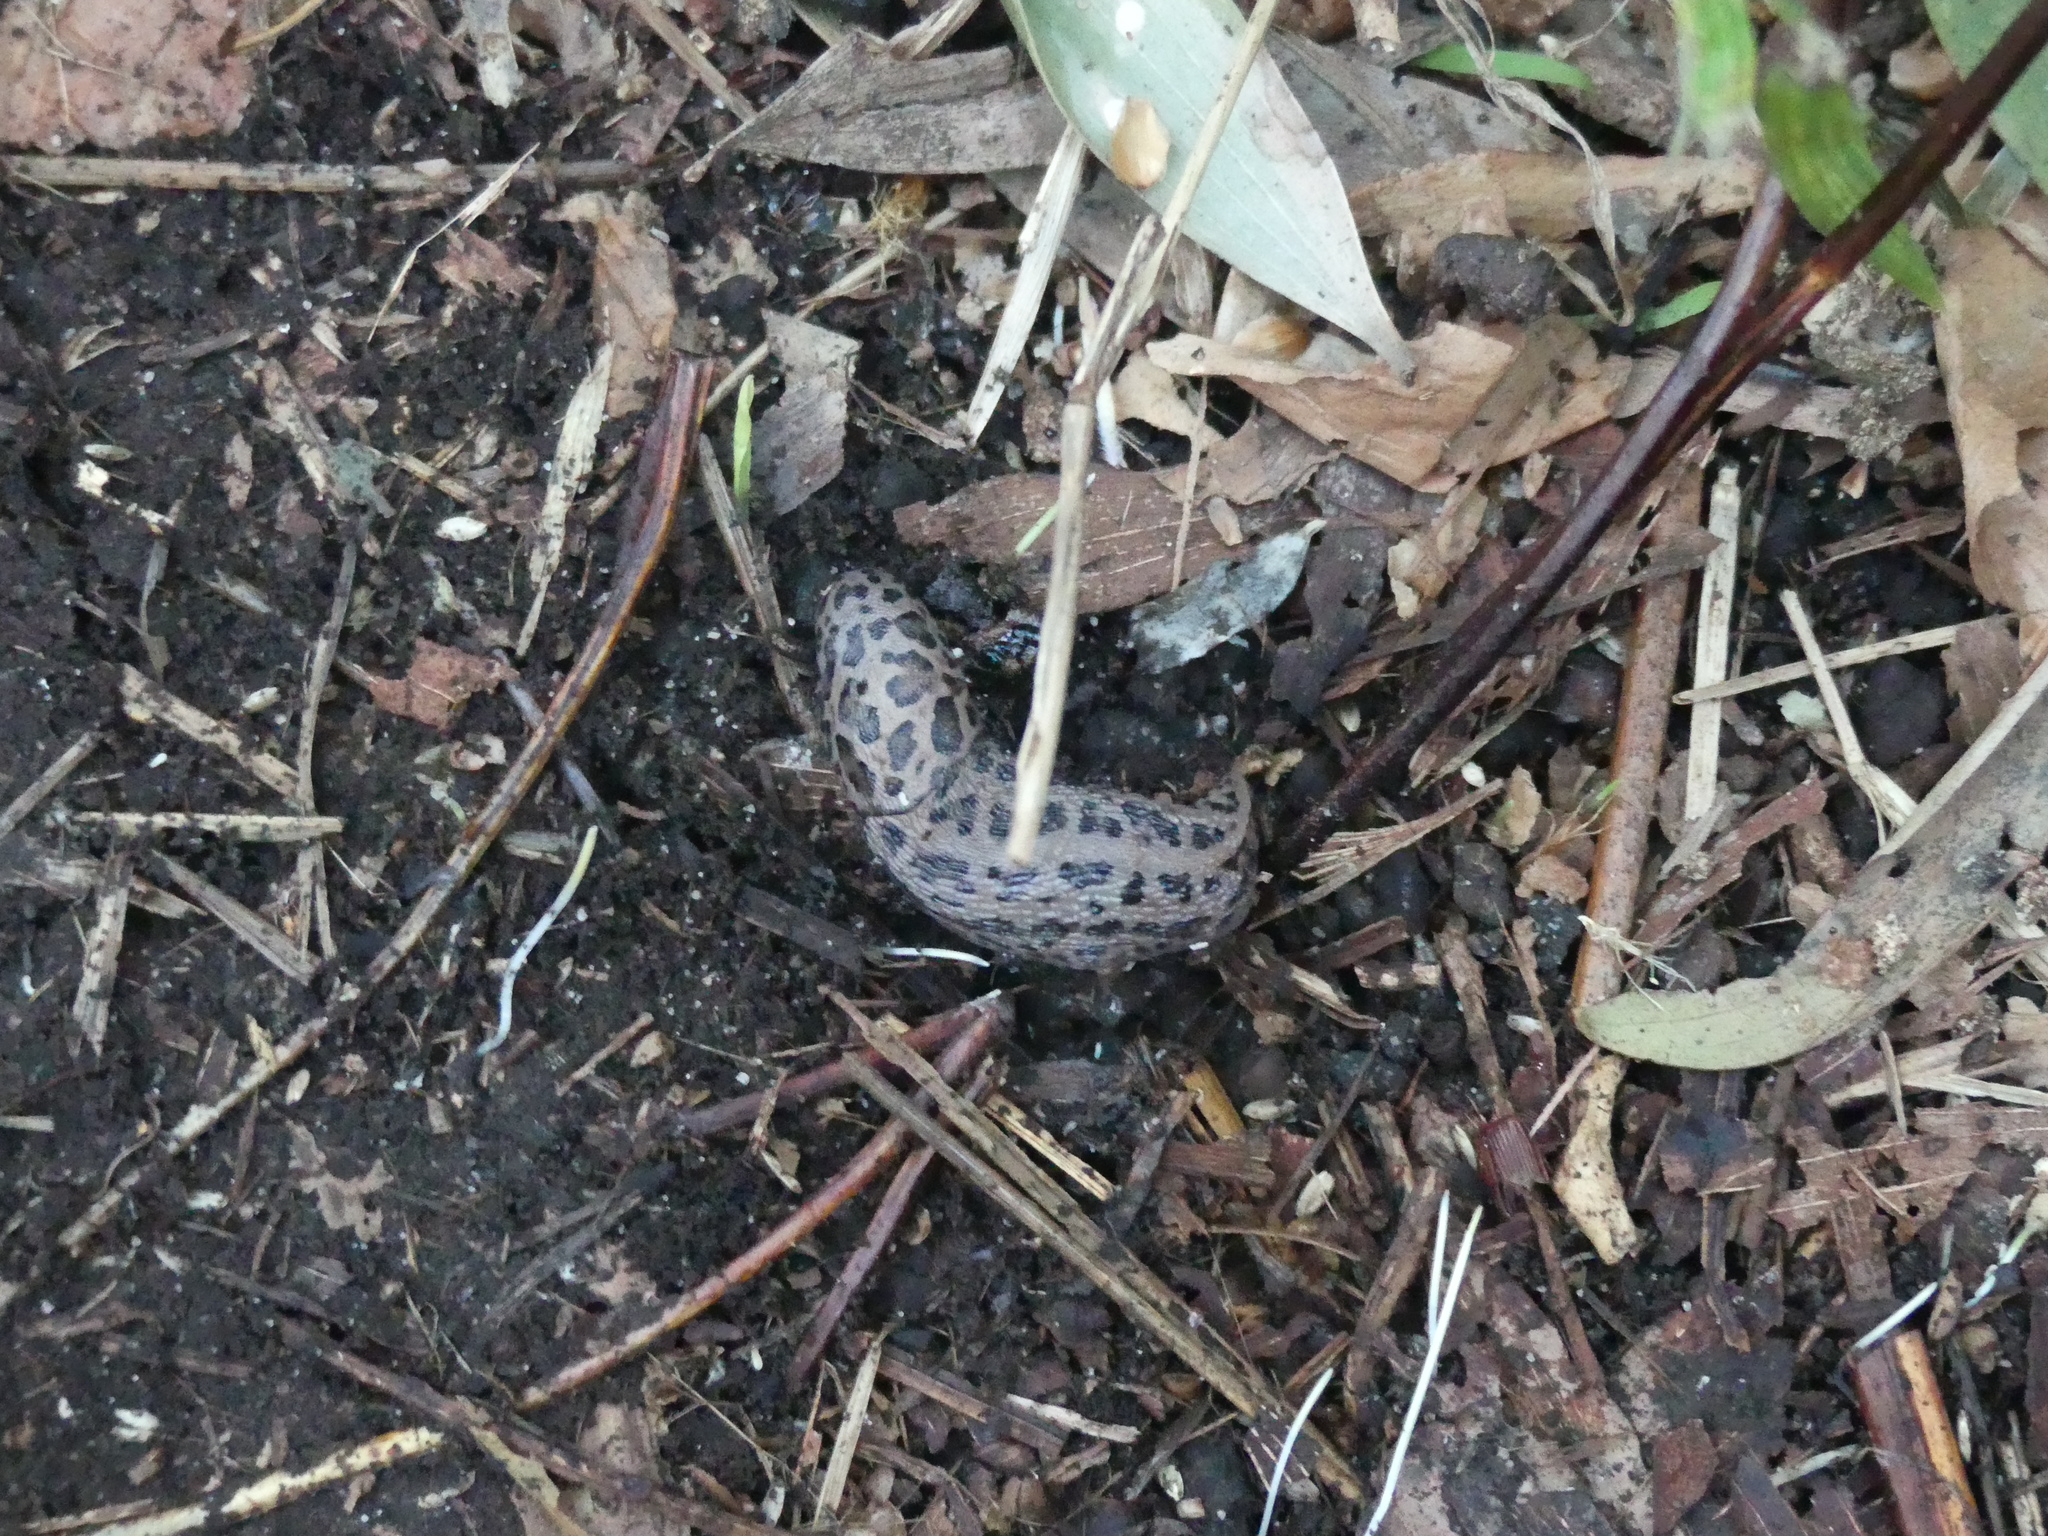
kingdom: Animalia
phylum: Mollusca
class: Gastropoda
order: Stylommatophora
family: Limacidae
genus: Limax
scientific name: Limax maximus
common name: Great grey slug
